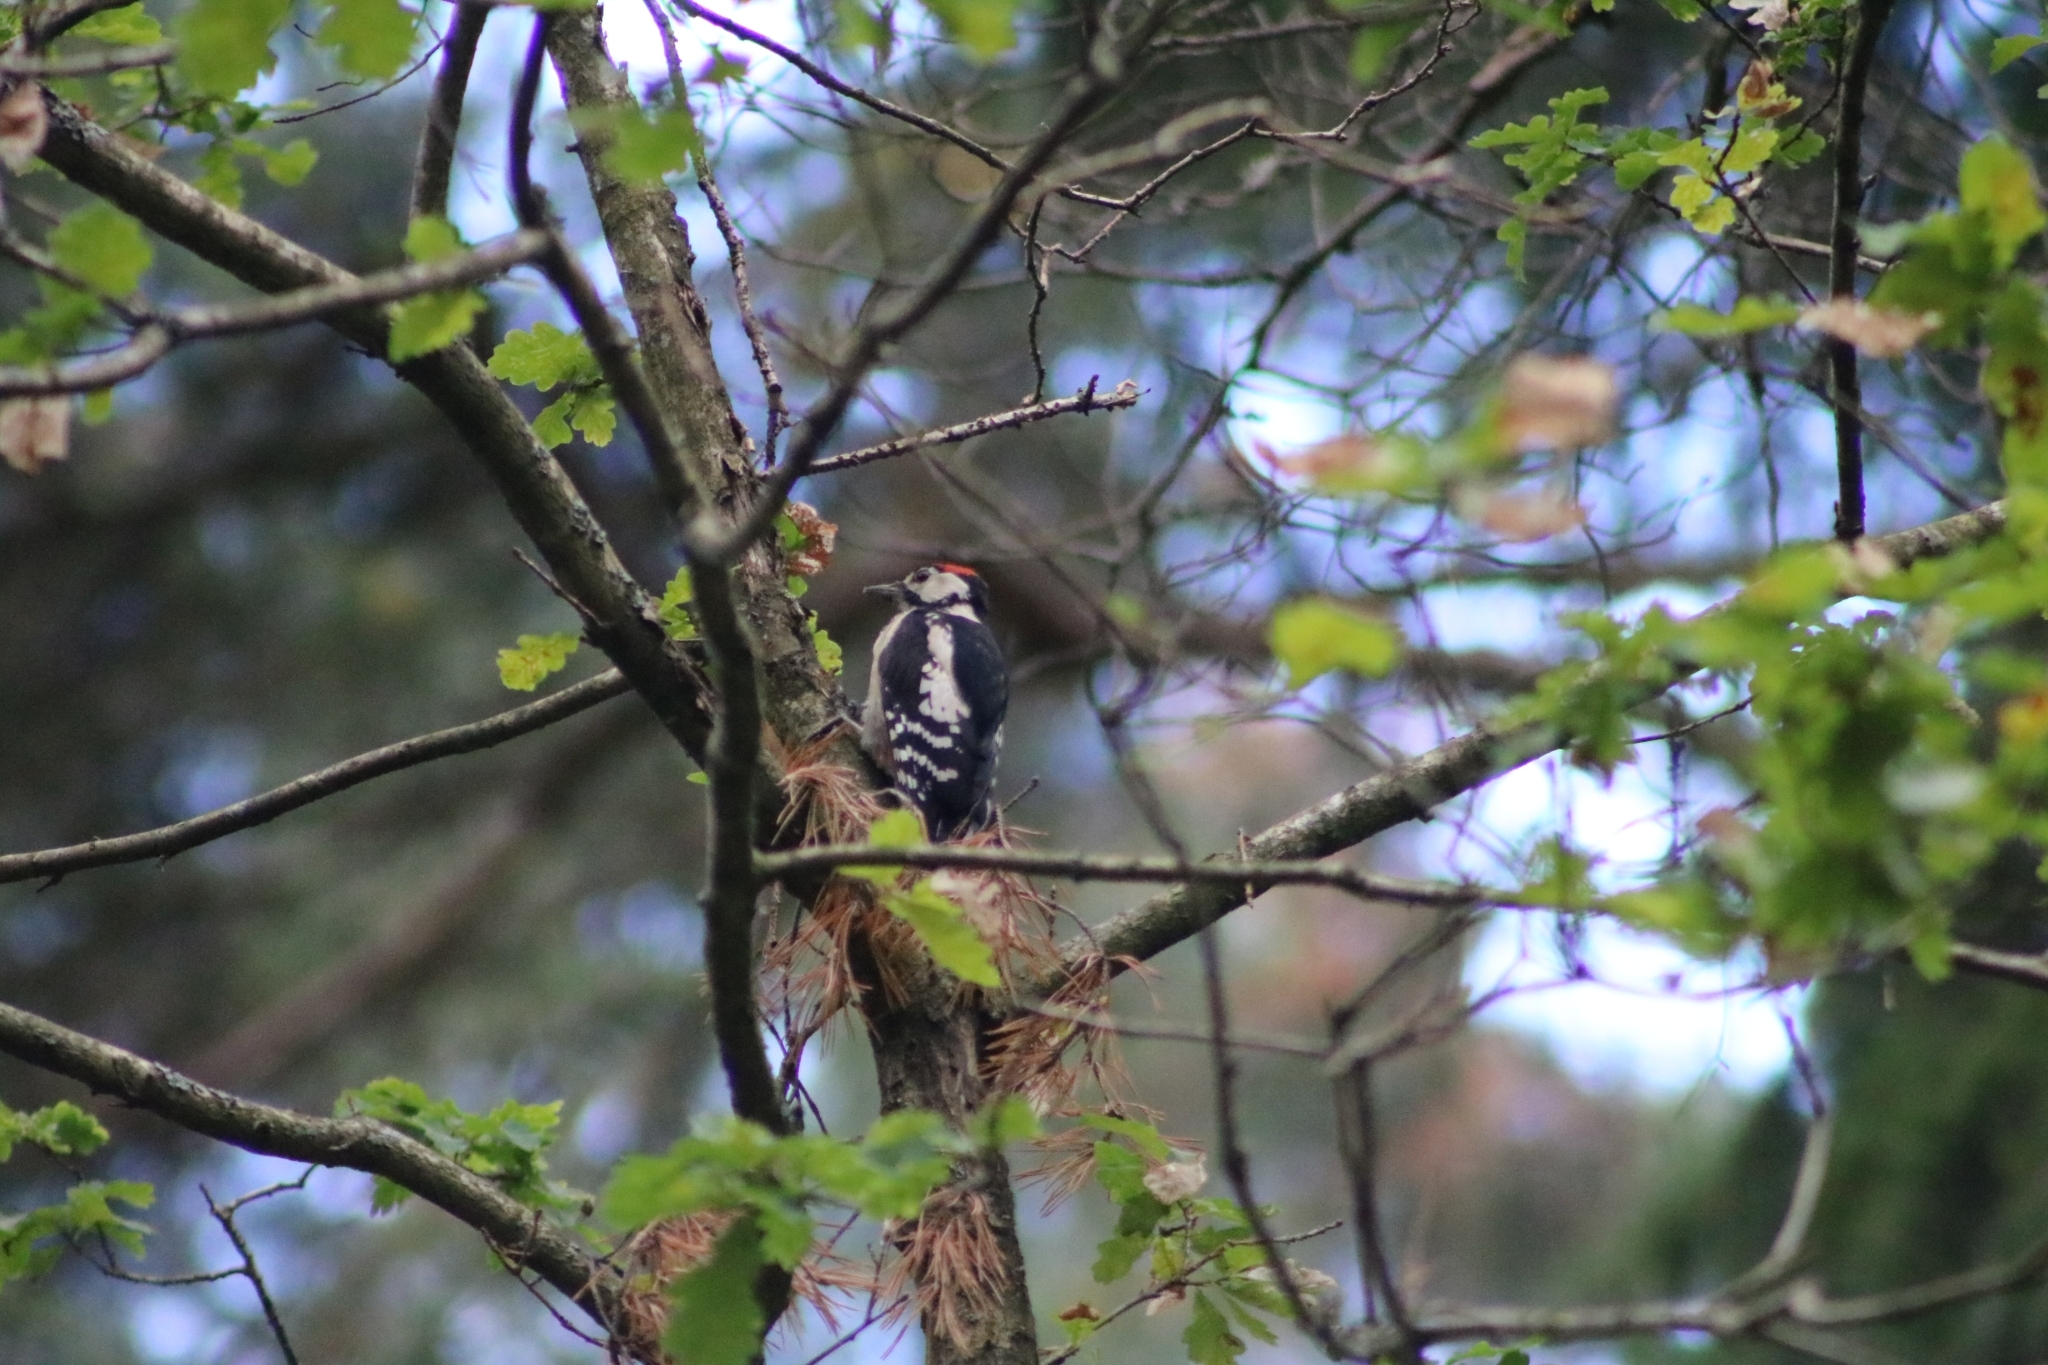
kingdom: Animalia
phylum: Chordata
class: Aves
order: Piciformes
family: Picidae
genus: Dendrocopos
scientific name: Dendrocopos major
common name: Great spotted woodpecker
